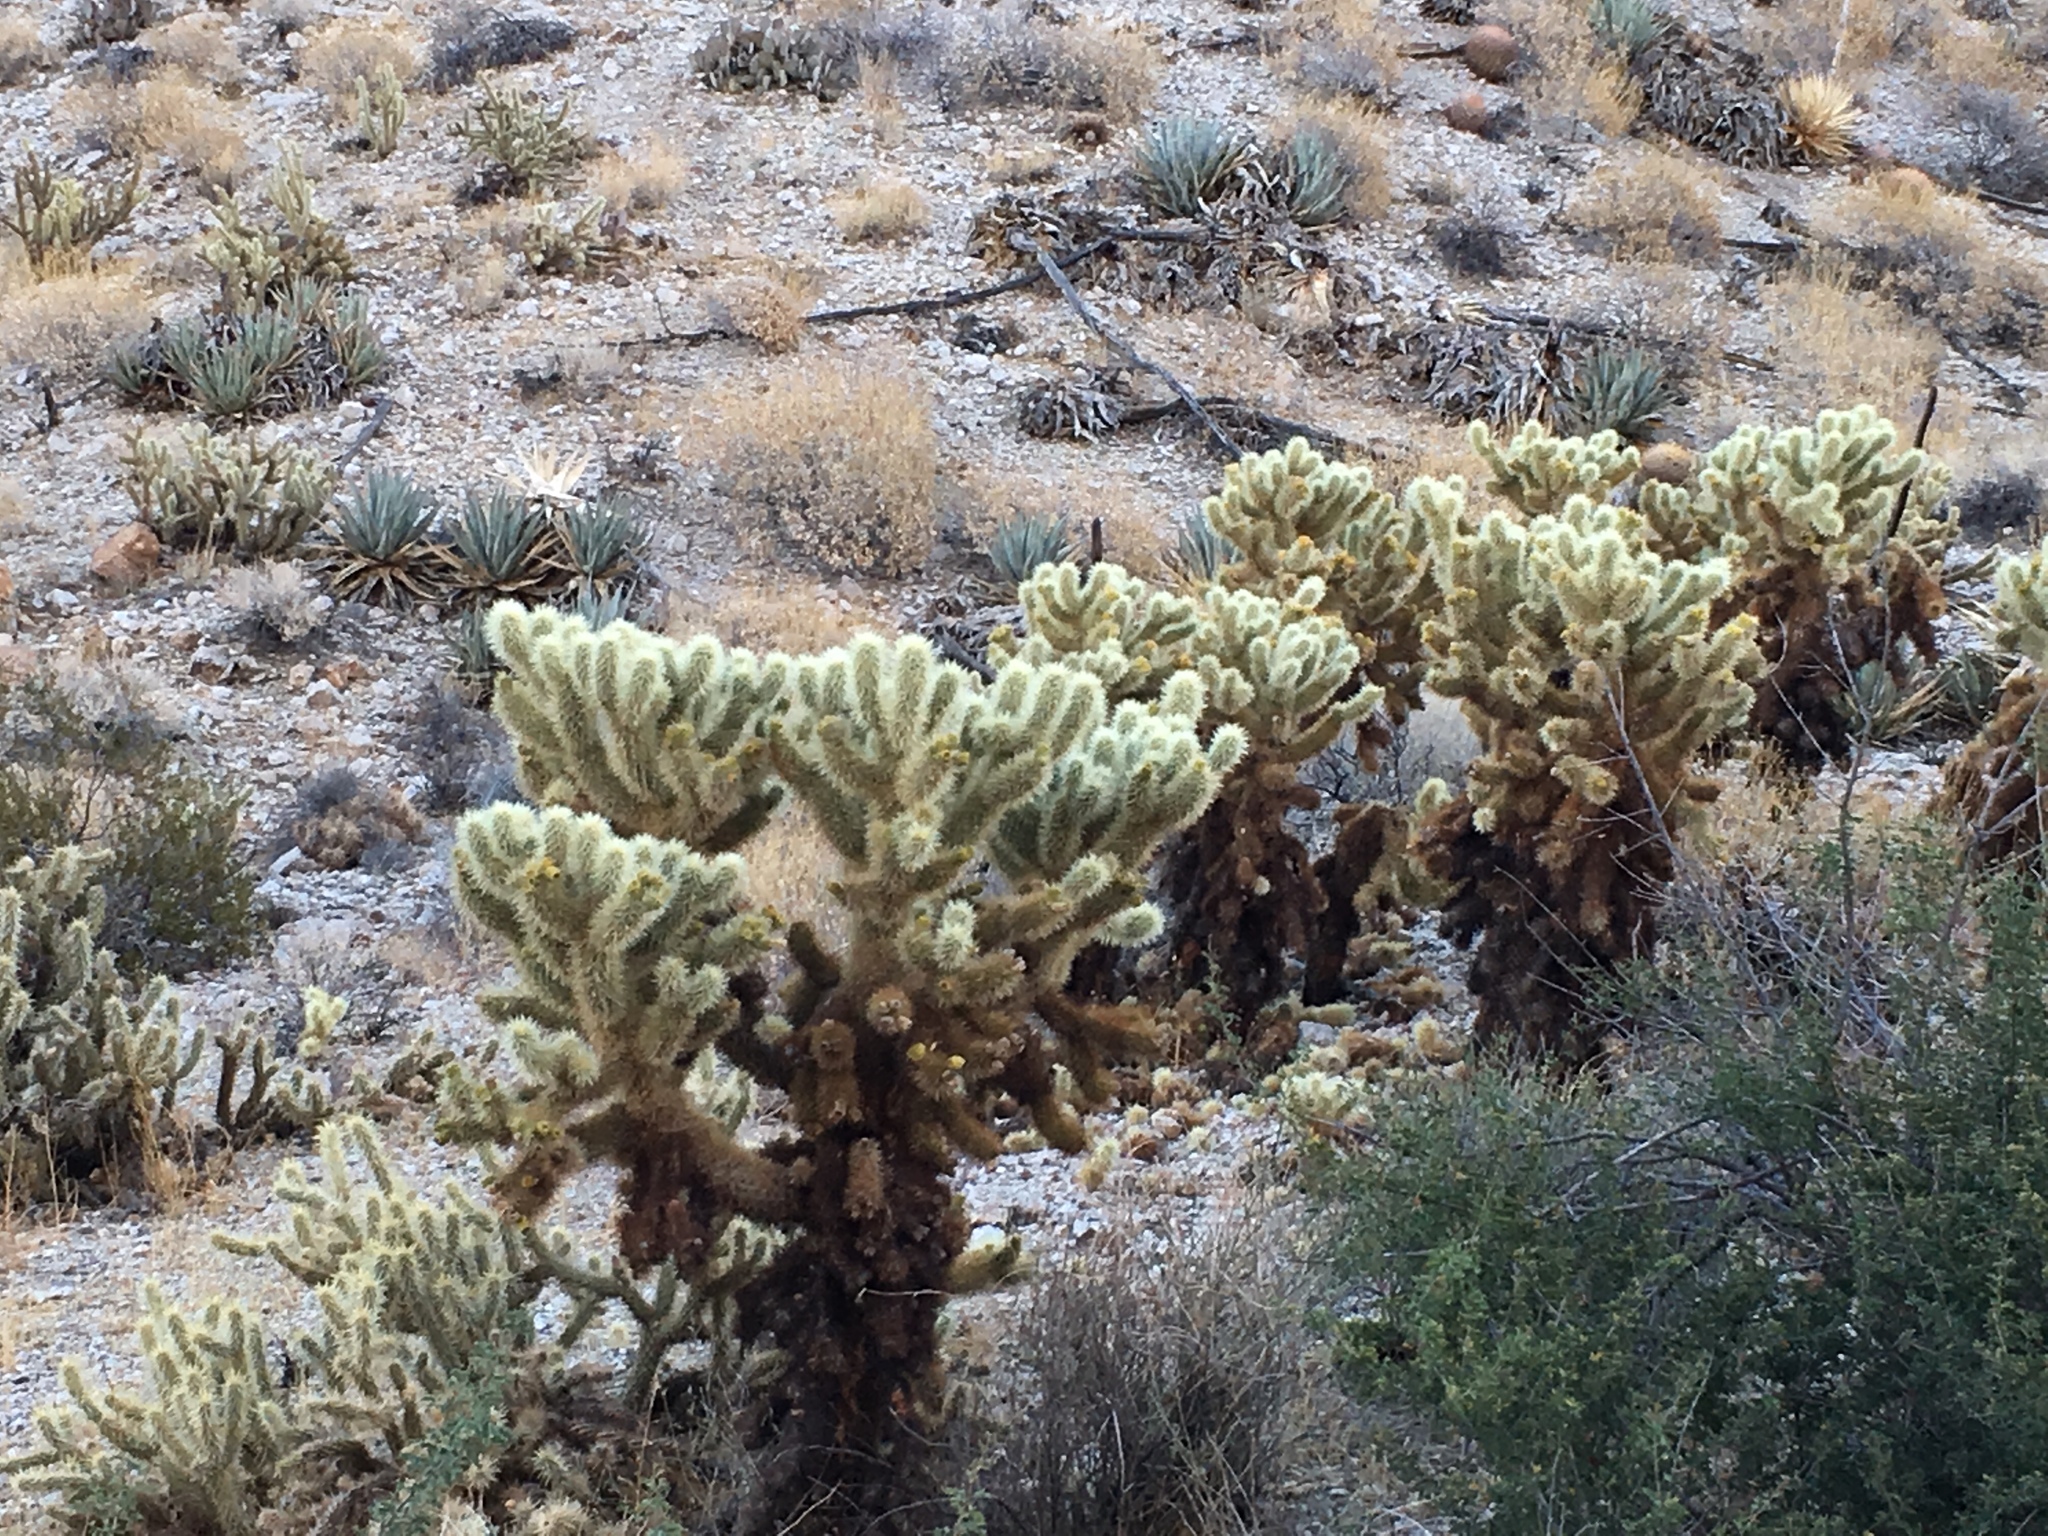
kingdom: Plantae
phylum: Tracheophyta
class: Magnoliopsida
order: Caryophyllales
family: Cactaceae
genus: Cylindropuntia
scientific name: Cylindropuntia fosbergii
